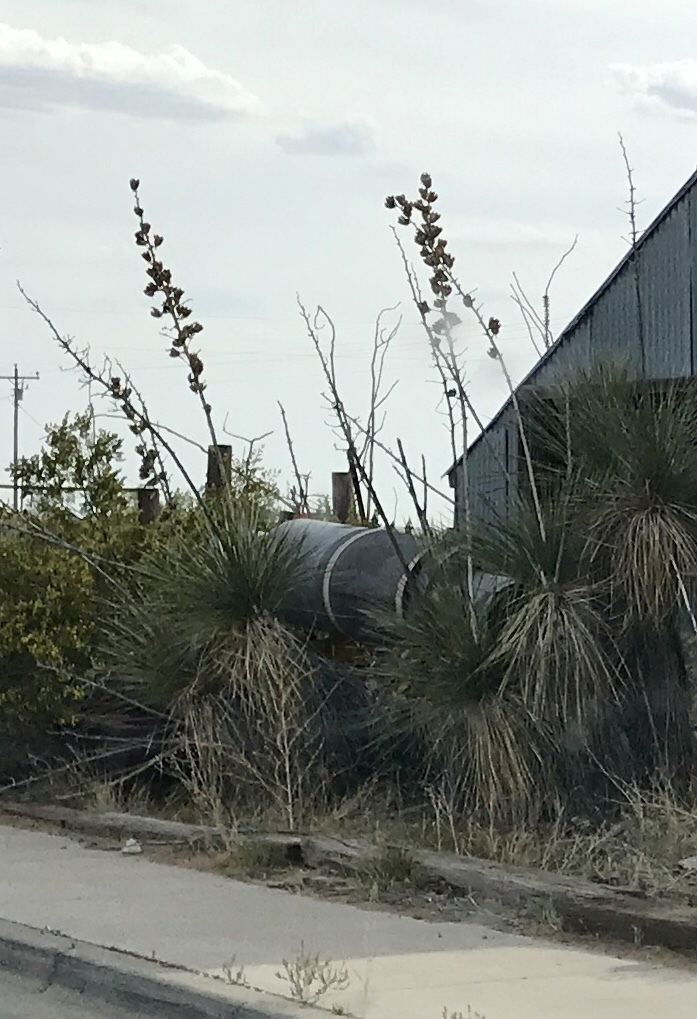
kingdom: Plantae
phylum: Tracheophyta
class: Liliopsida
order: Asparagales
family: Asparagaceae
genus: Yucca
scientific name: Yucca elata
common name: Palmella
